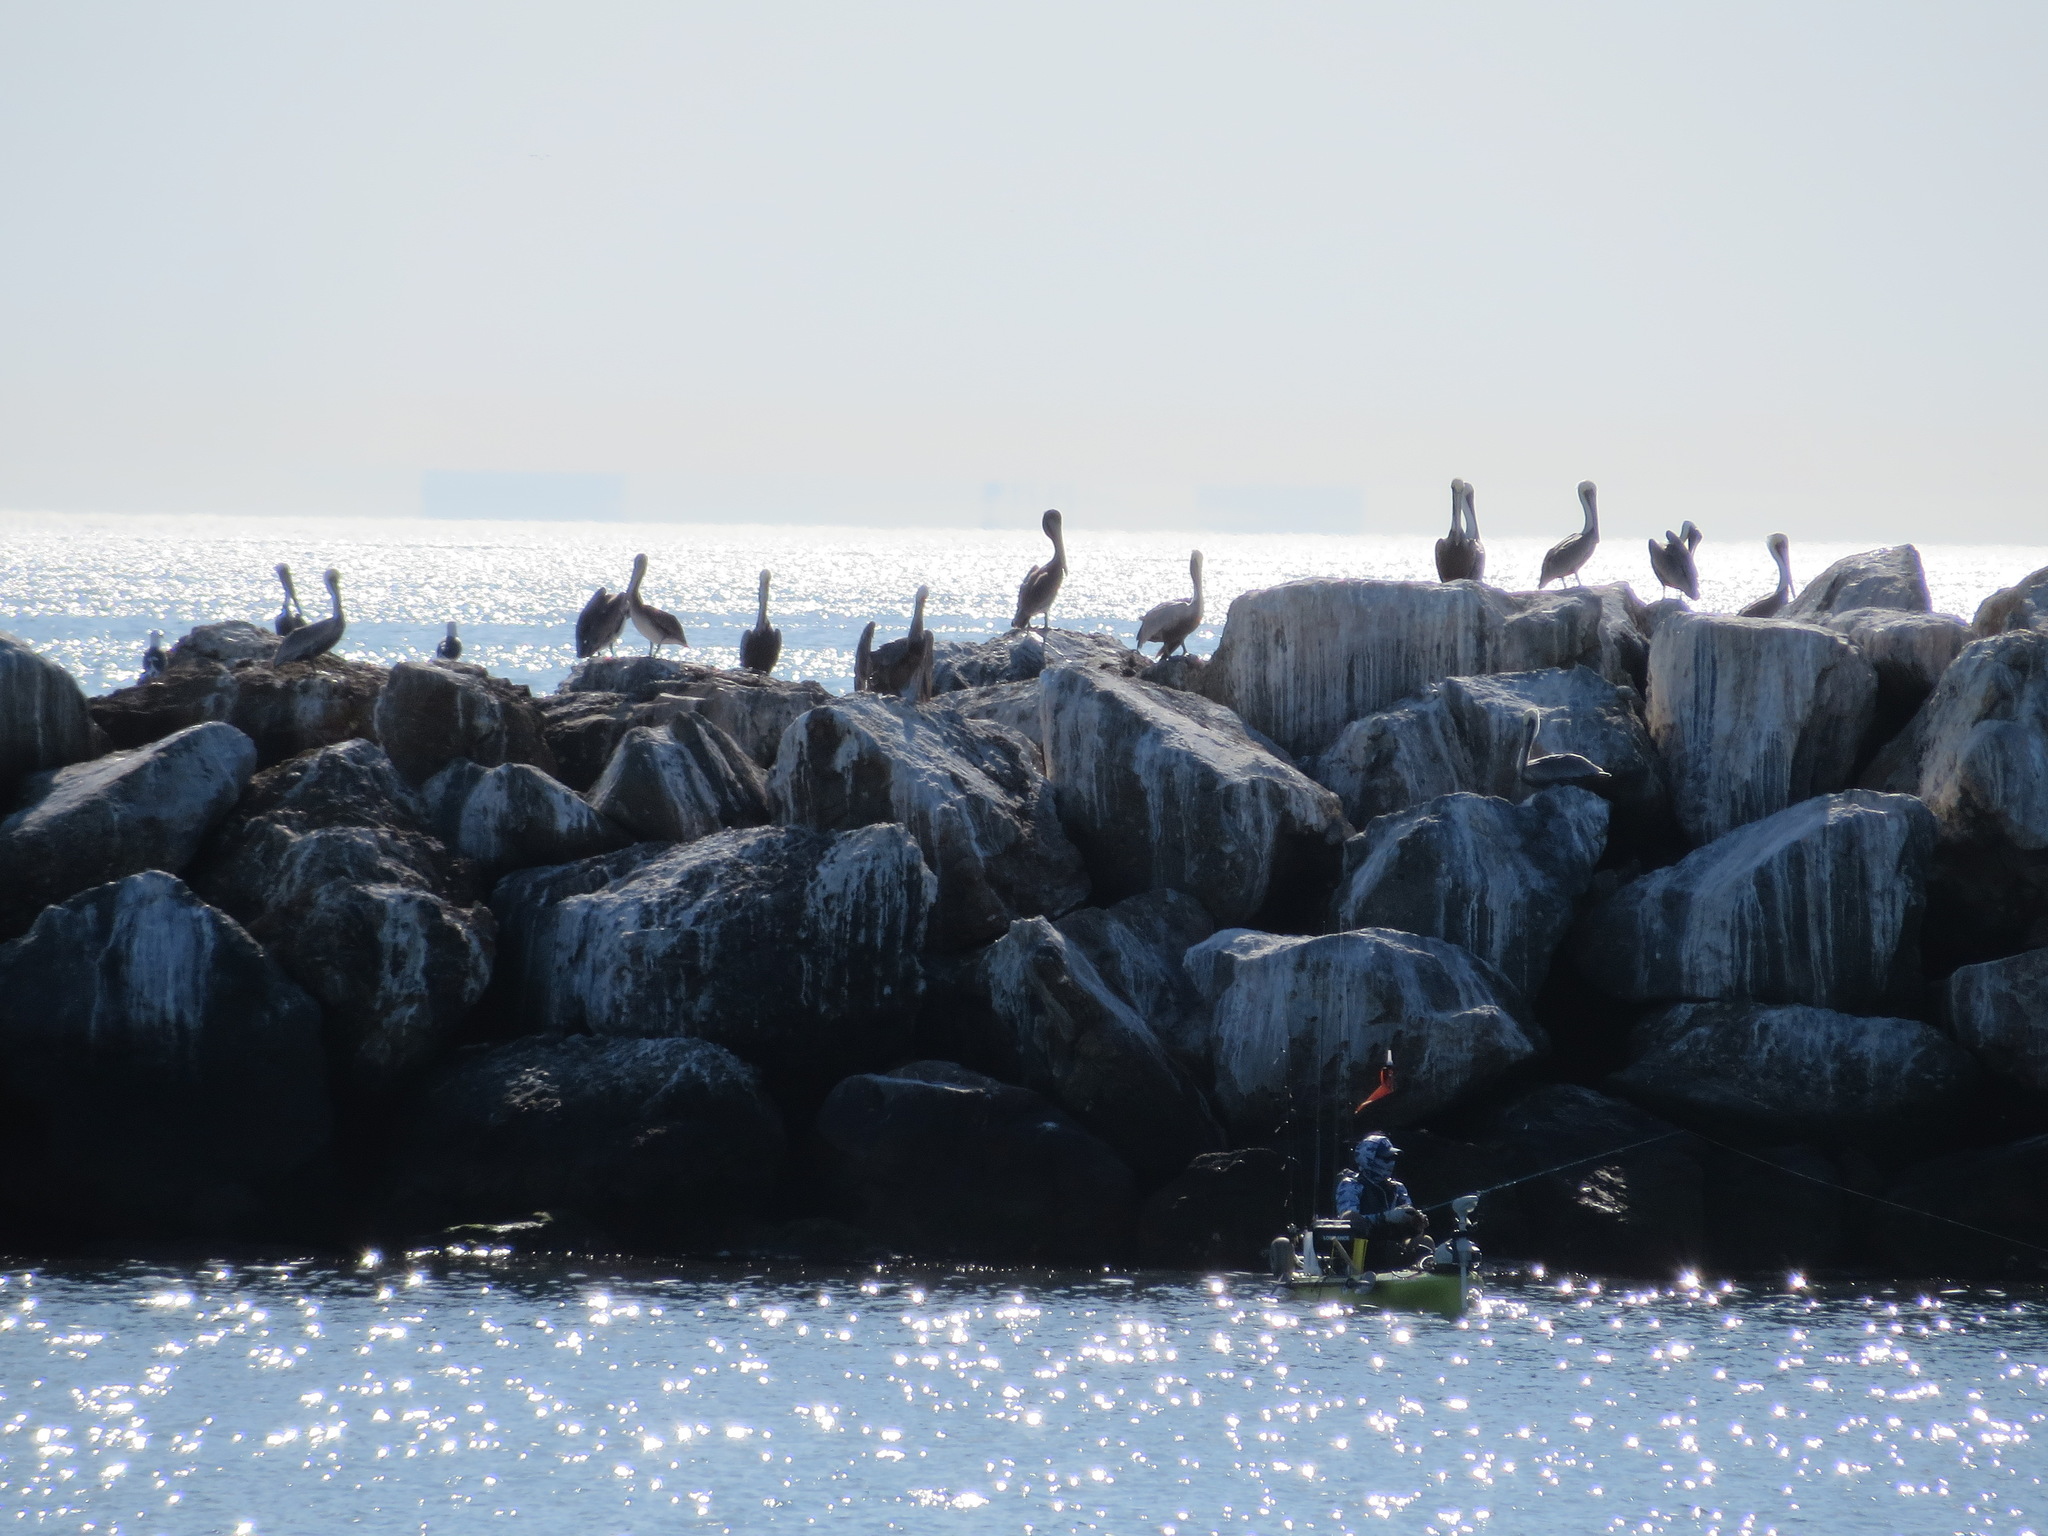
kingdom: Animalia
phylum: Chordata
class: Aves
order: Pelecaniformes
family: Pelecanidae
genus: Pelecanus
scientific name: Pelecanus occidentalis
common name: Brown pelican
